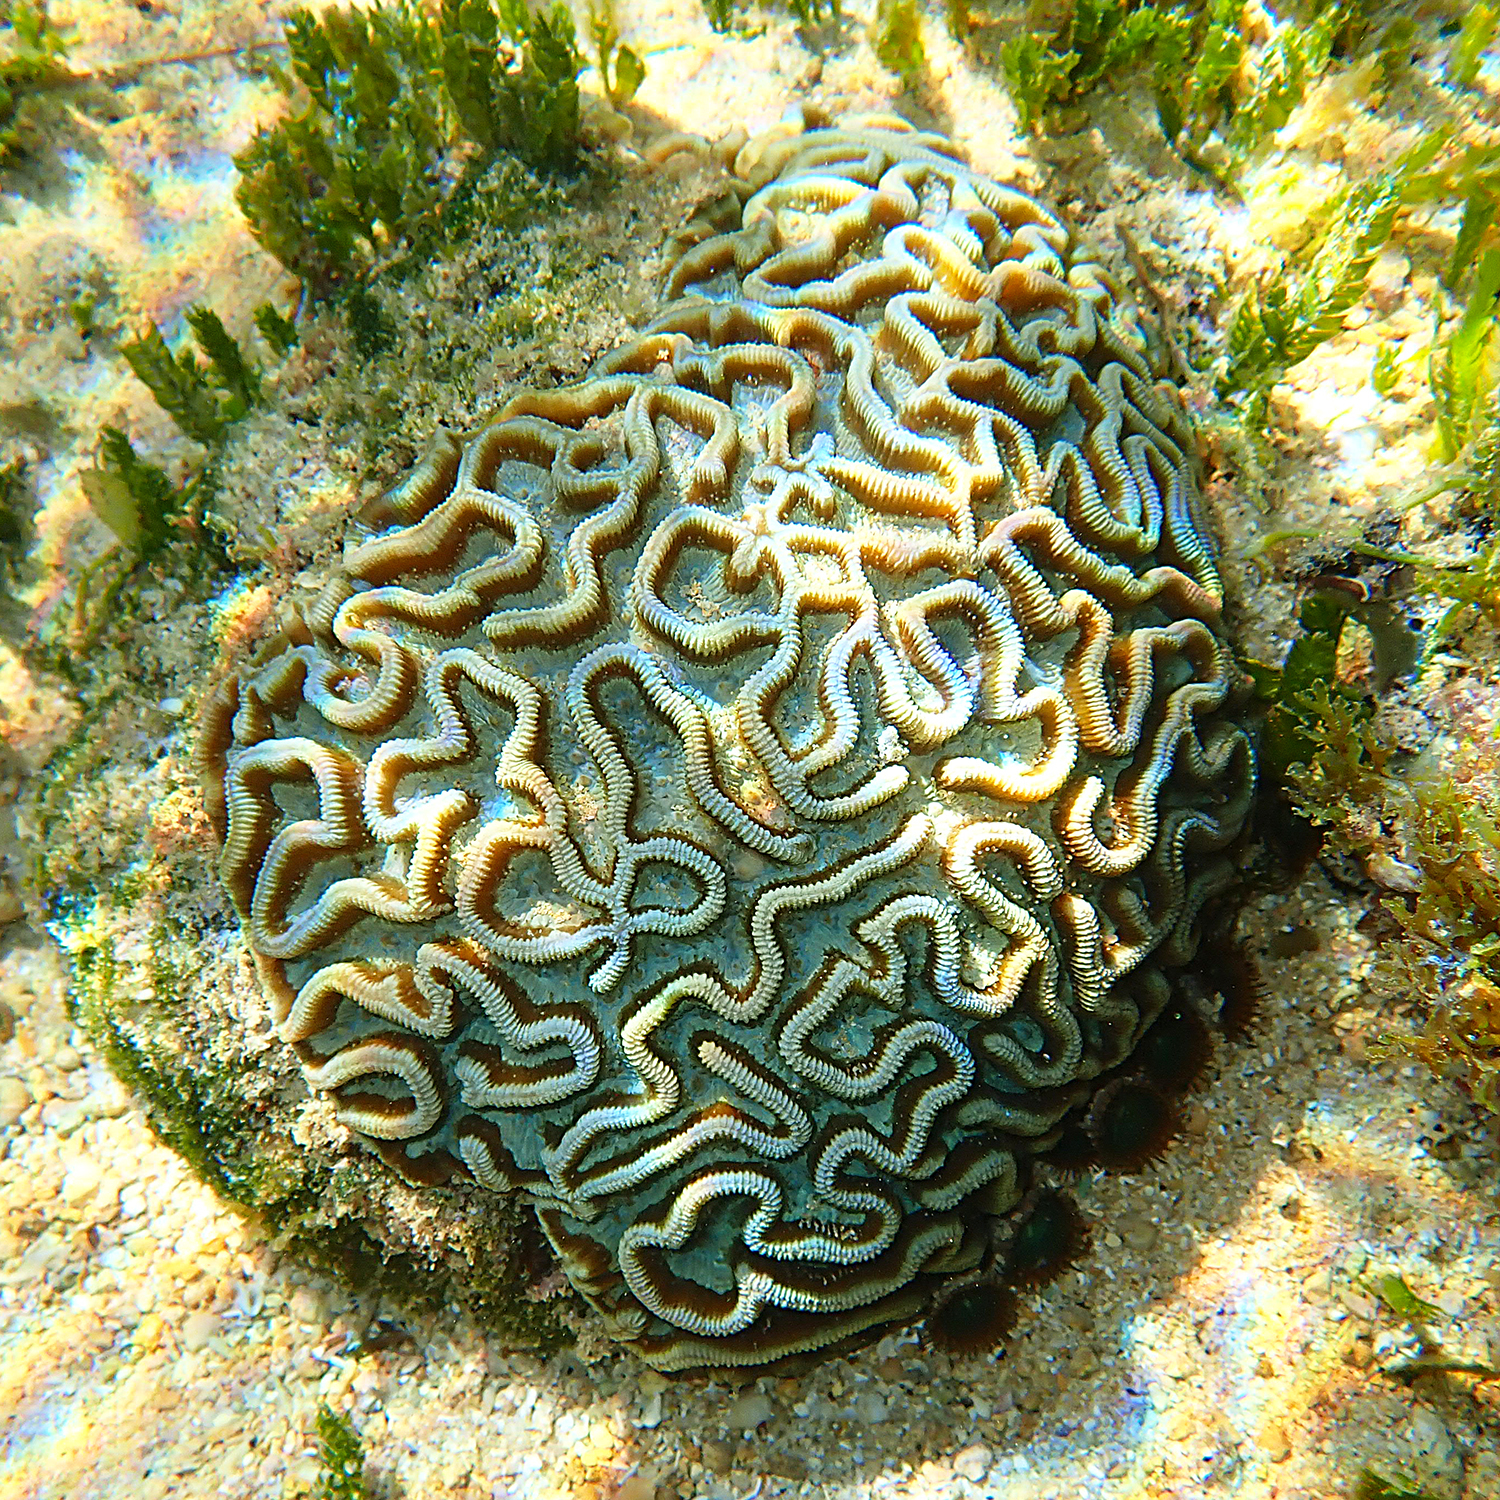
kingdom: Animalia
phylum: Cnidaria
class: Anthozoa
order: Scleractinia
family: Merulinidae
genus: Paragoniastrea
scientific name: Paragoniastrea australensis
